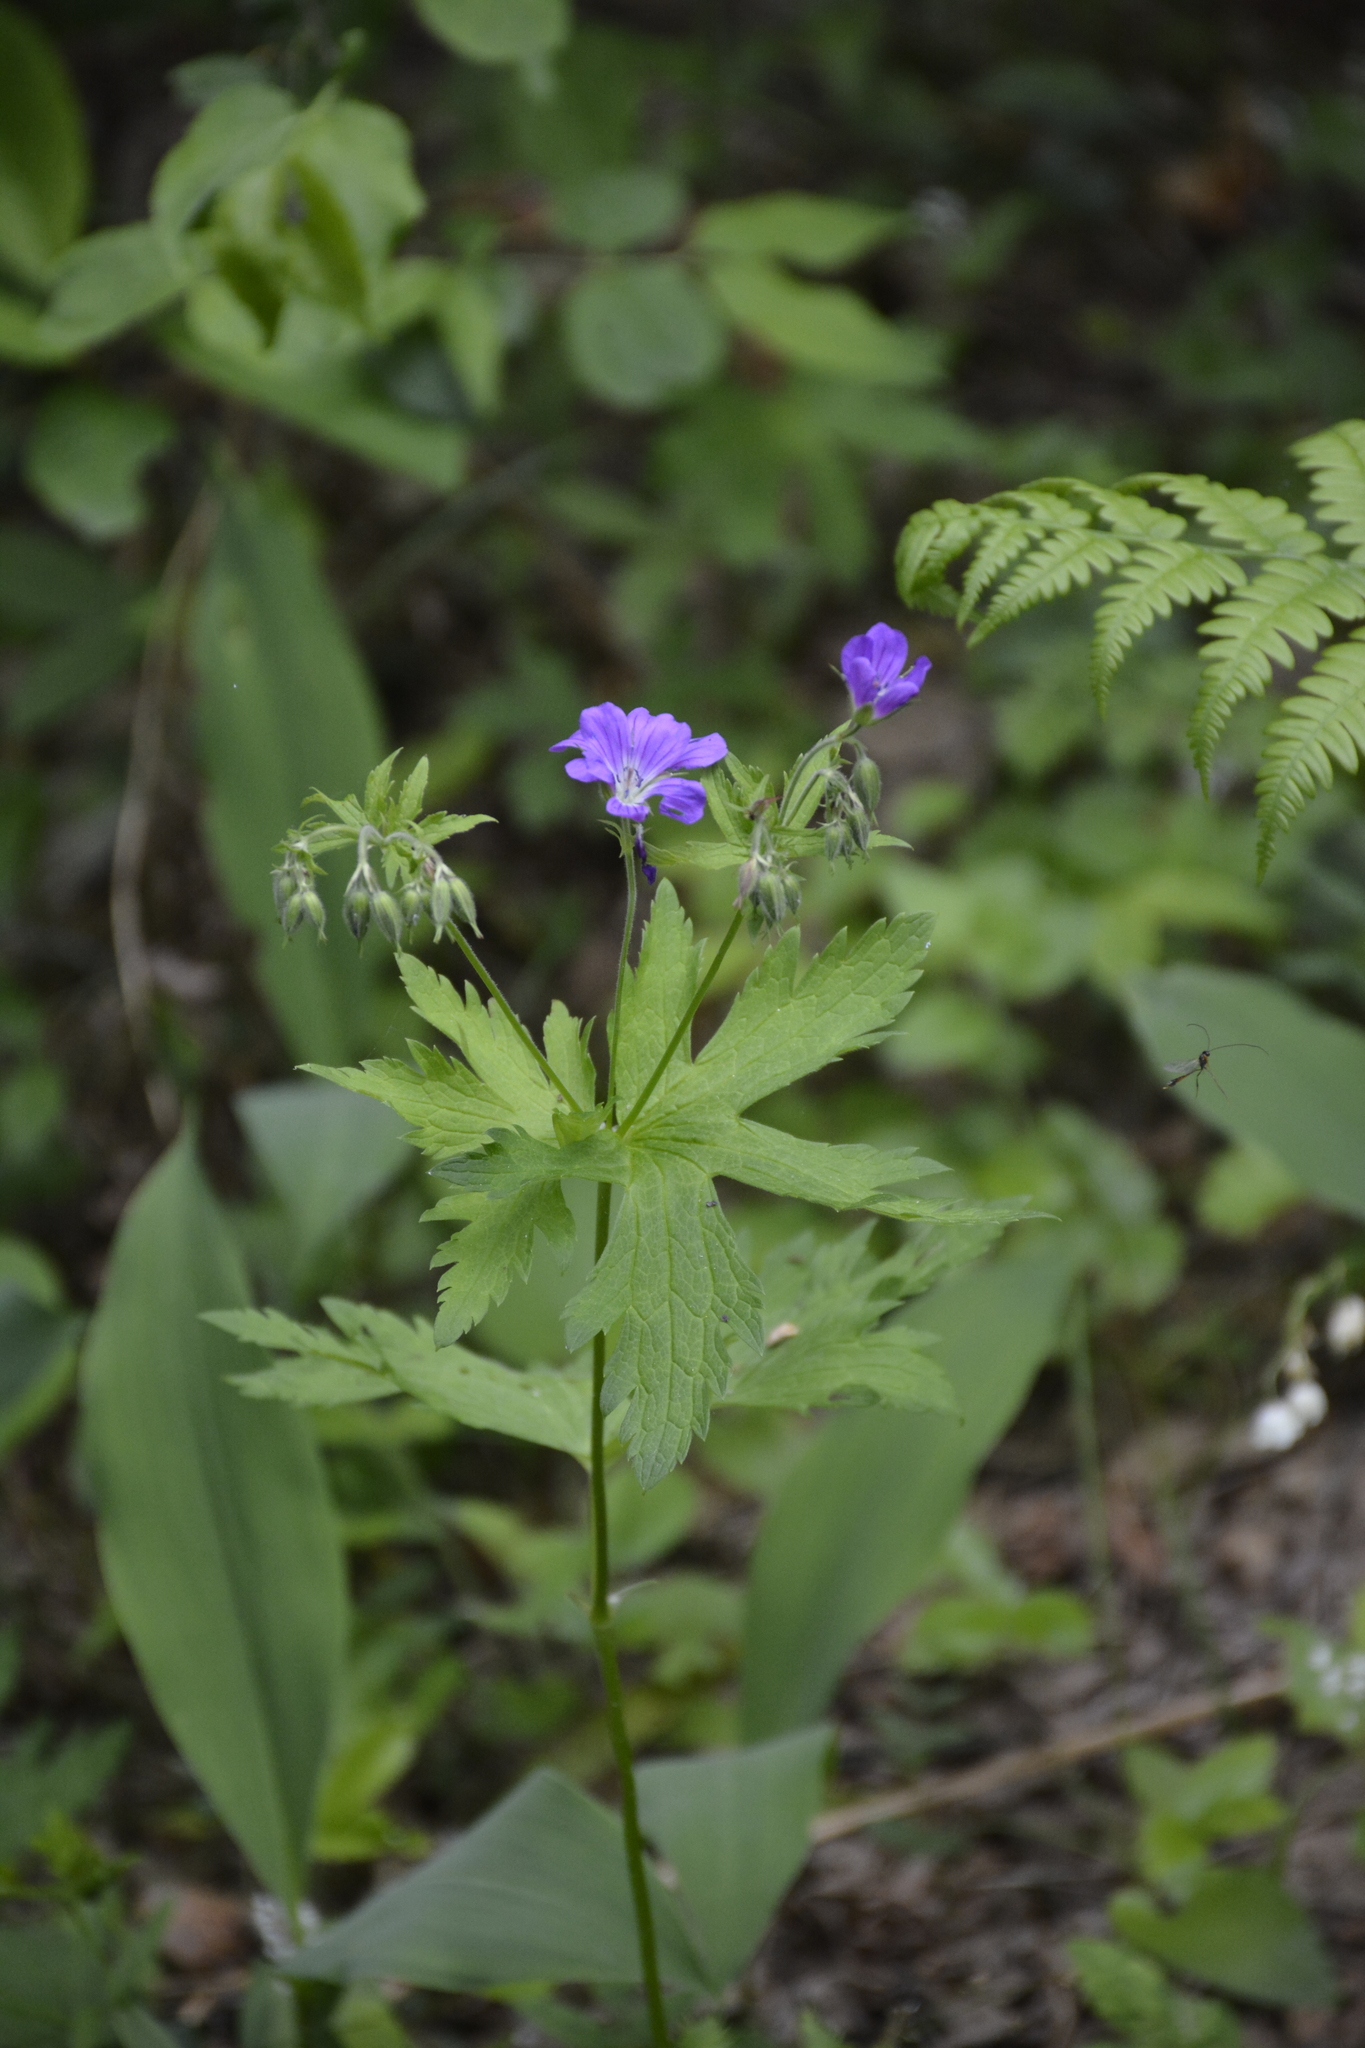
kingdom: Plantae
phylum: Tracheophyta
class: Magnoliopsida
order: Geraniales
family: Geraniaceae
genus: Geranium
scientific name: Geranium sylvaticum
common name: Wood crane's-bill
